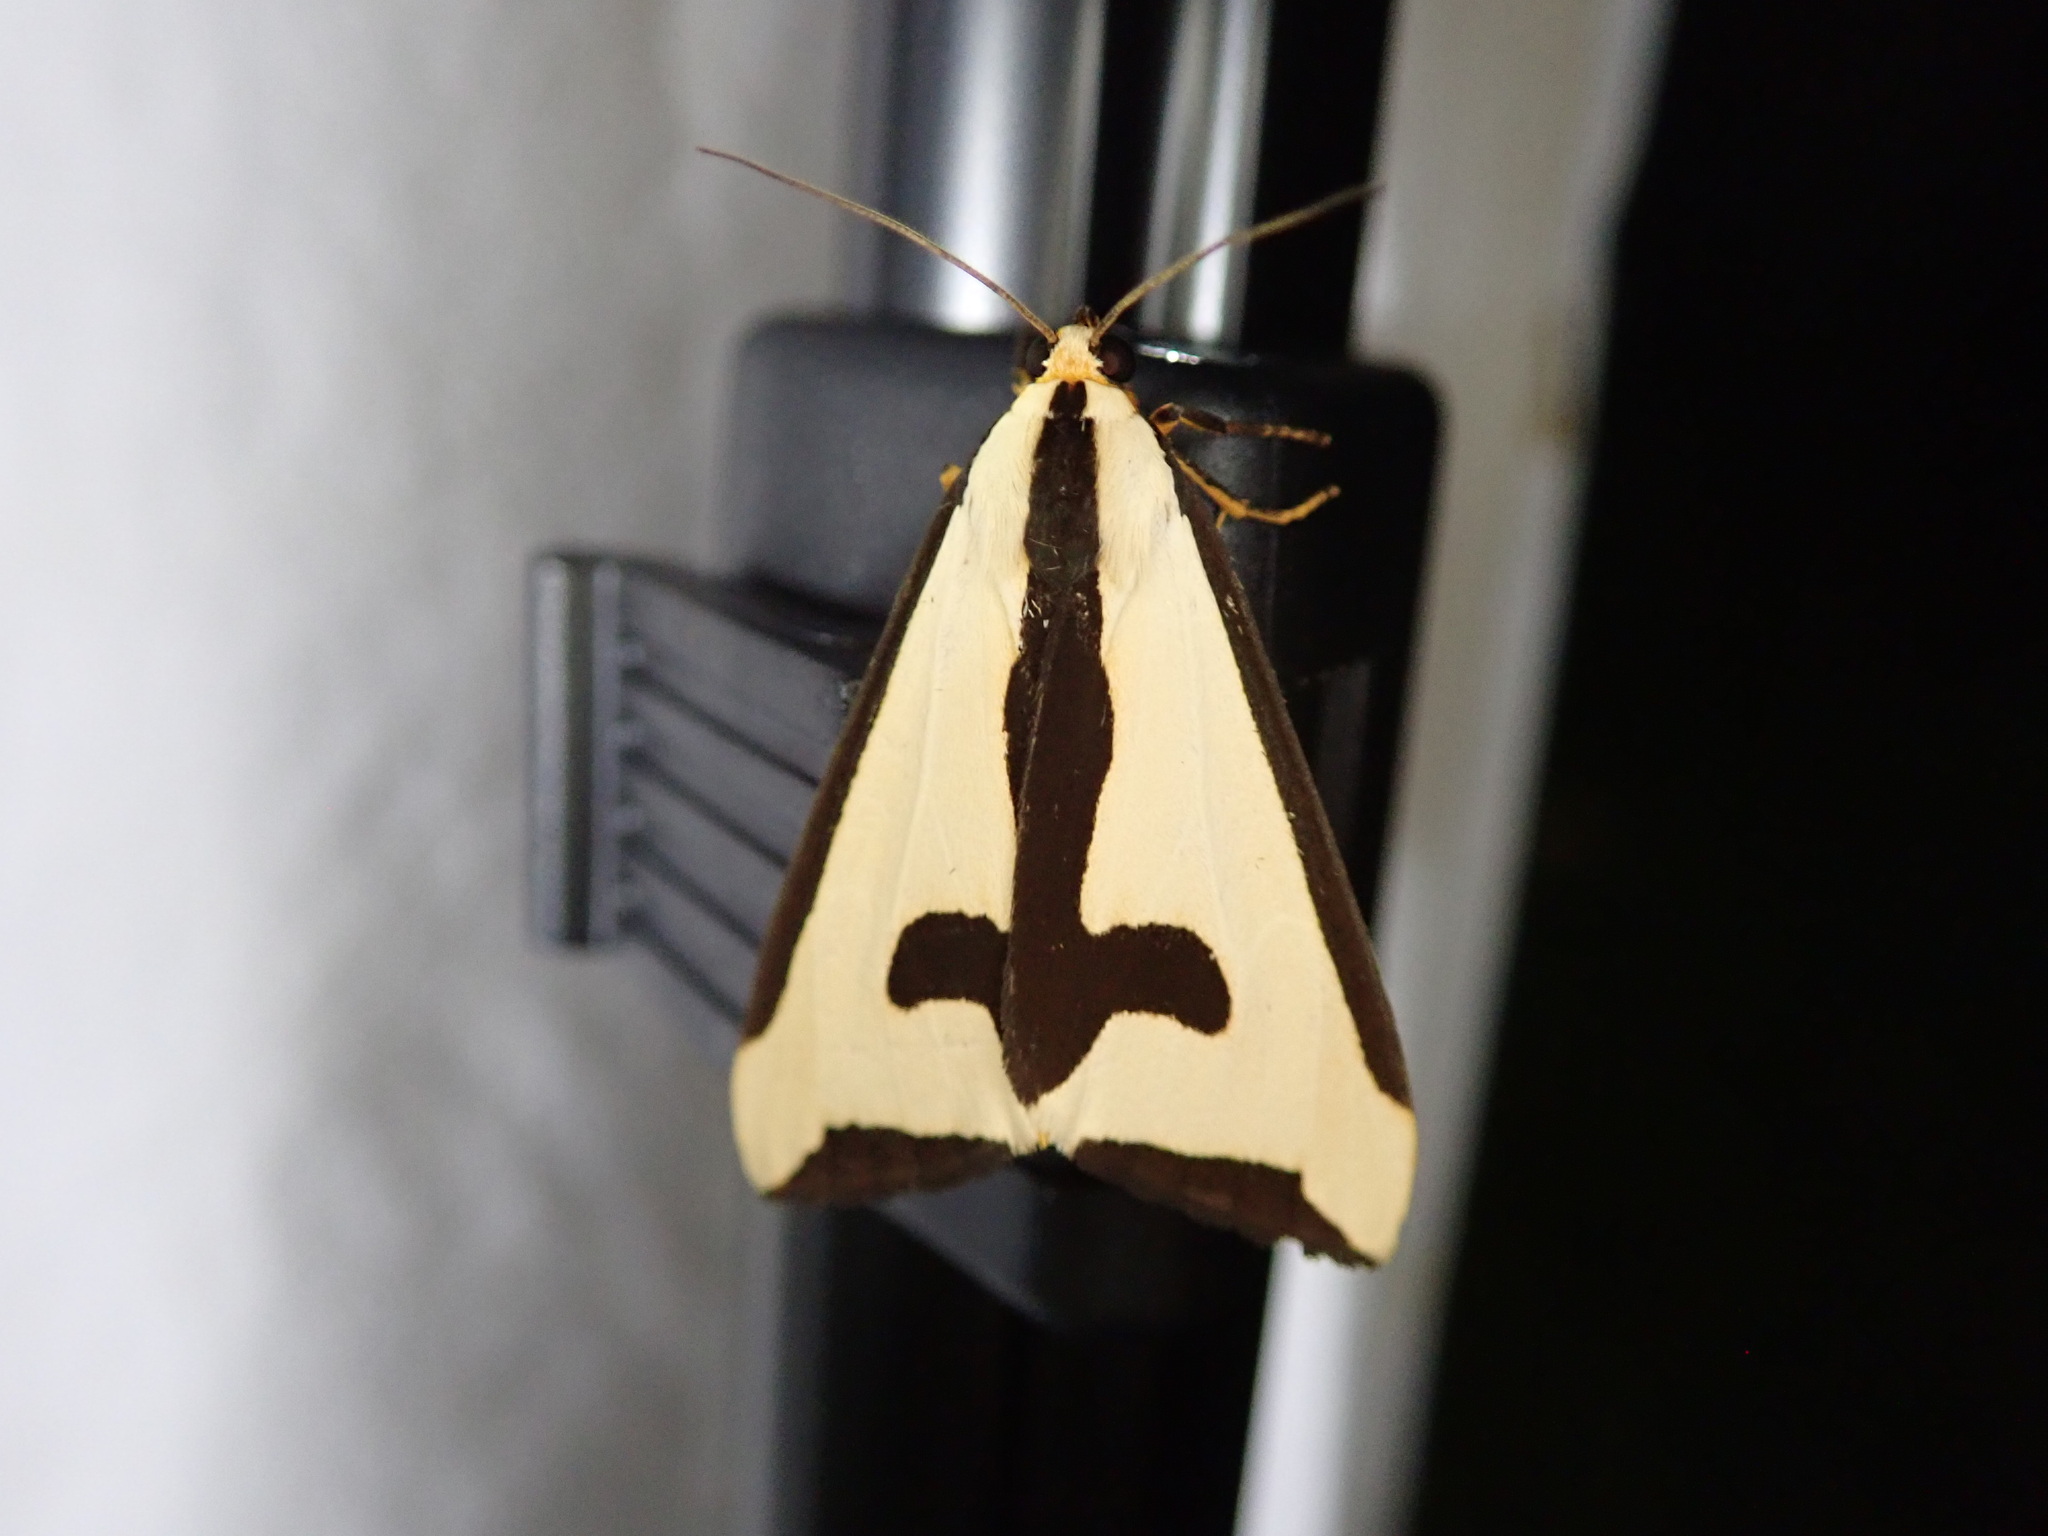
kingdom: Animalia
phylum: Arthropoda
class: Insecta
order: Lepidoptera
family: Erebidae
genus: Haploa
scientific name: Haploa clymene
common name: Clymene moth
